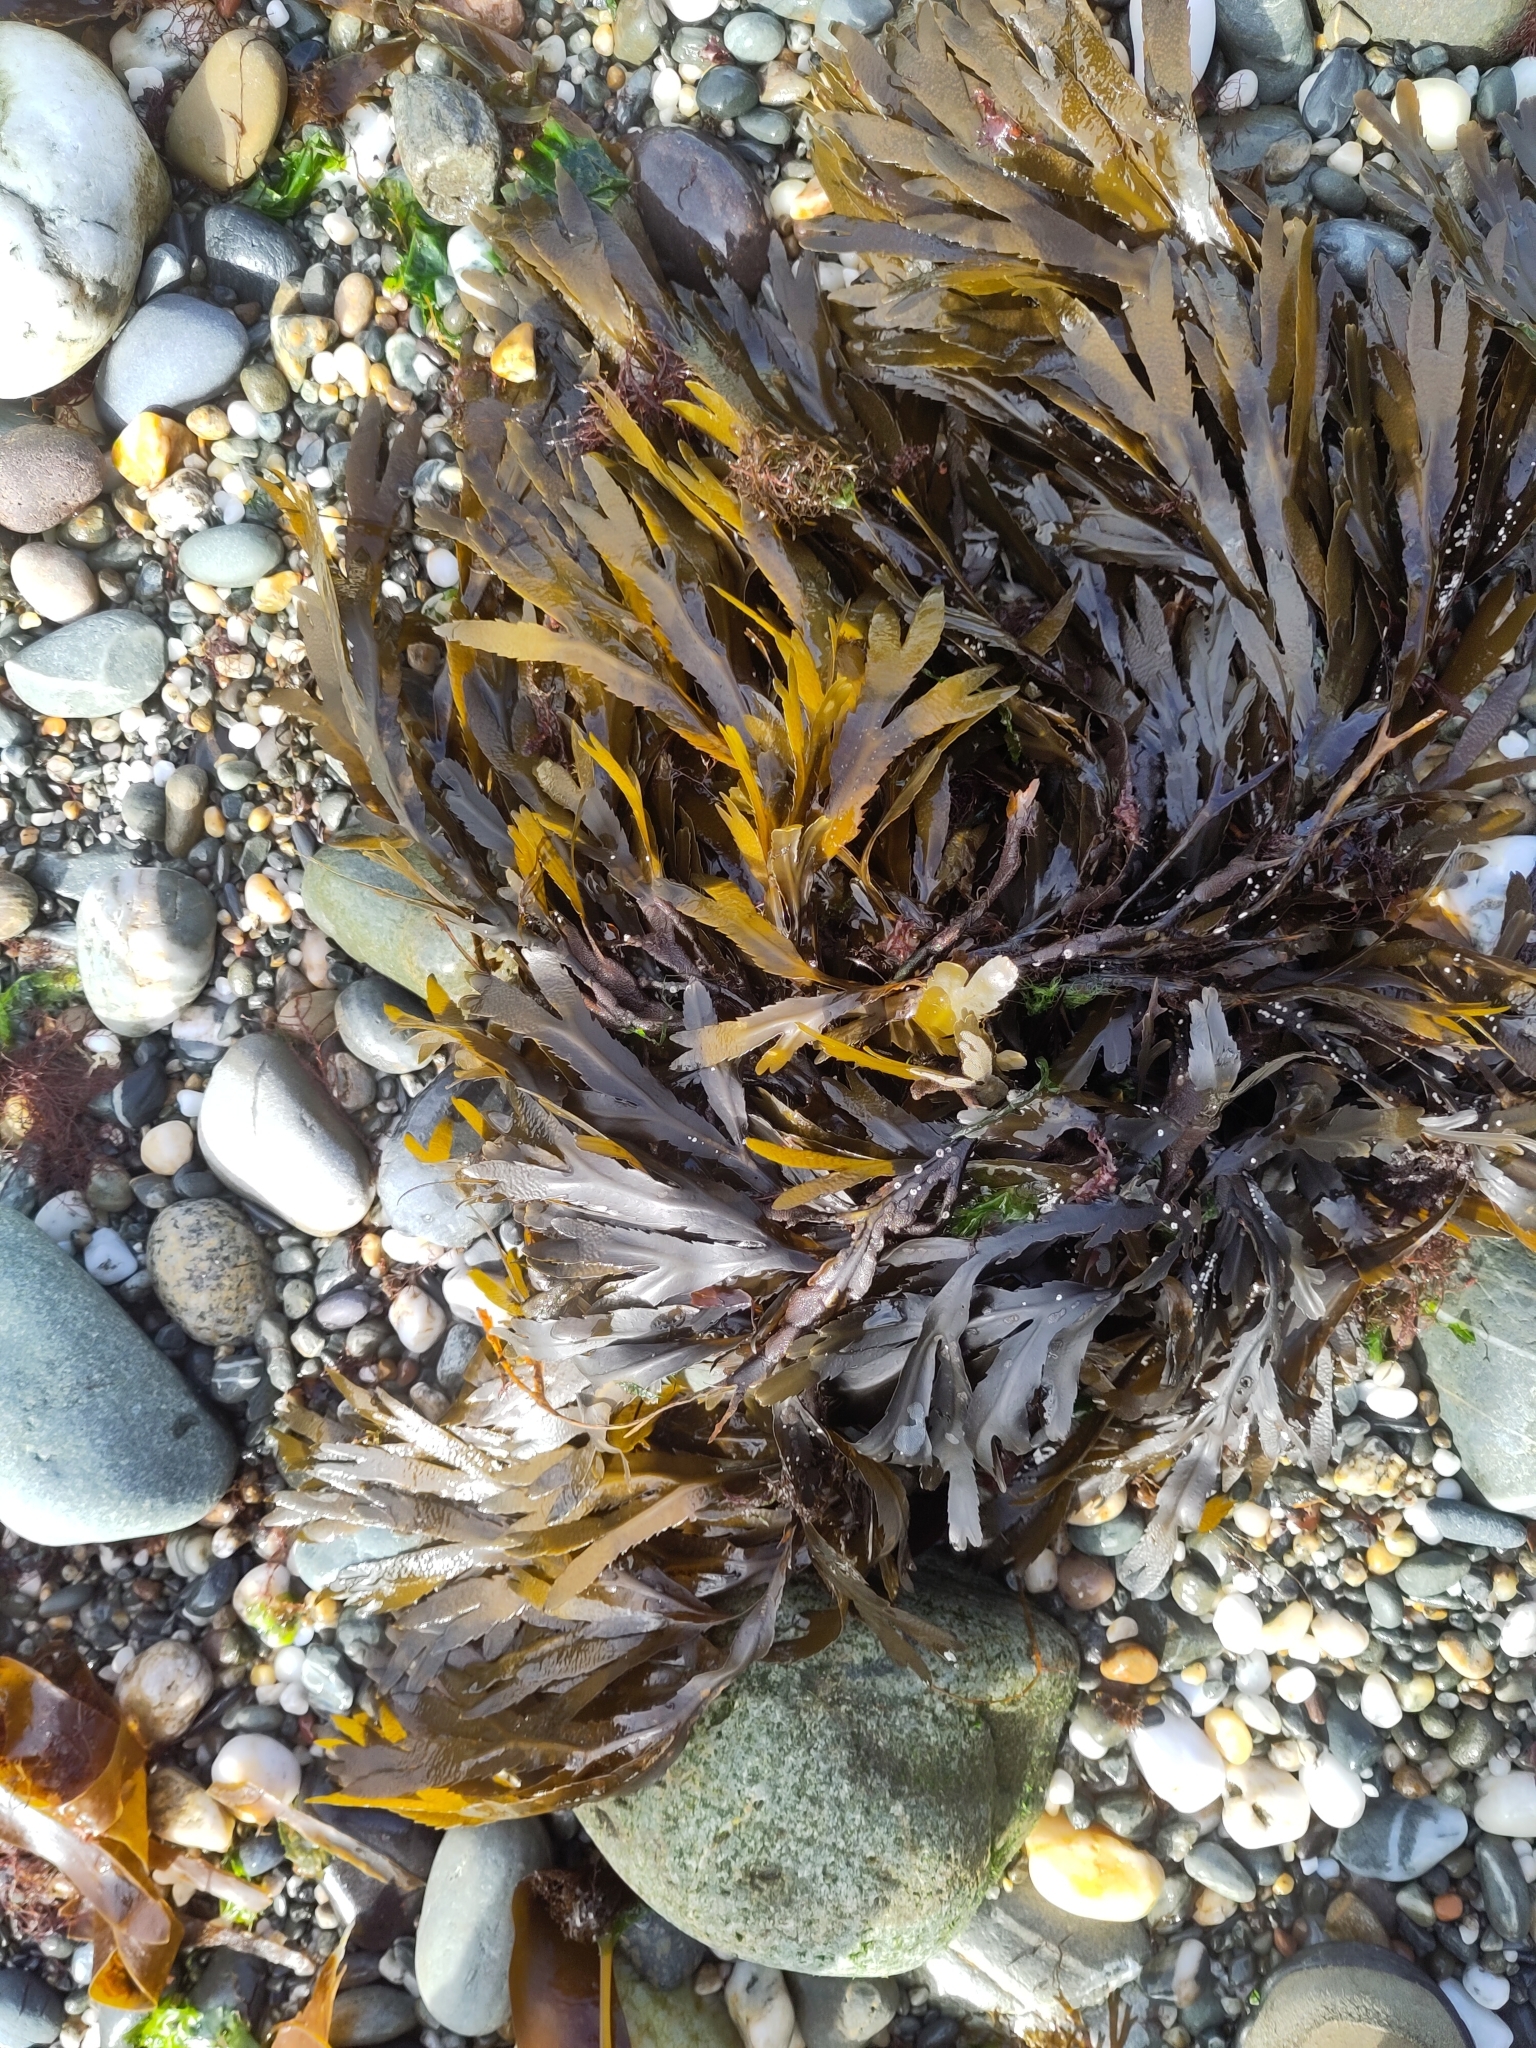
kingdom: Chromista
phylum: Ochrophyta
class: Phaeophyceae
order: Fucales
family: Fucaceae
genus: Fucus
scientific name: Fucus serratus
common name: Toothed wrack
